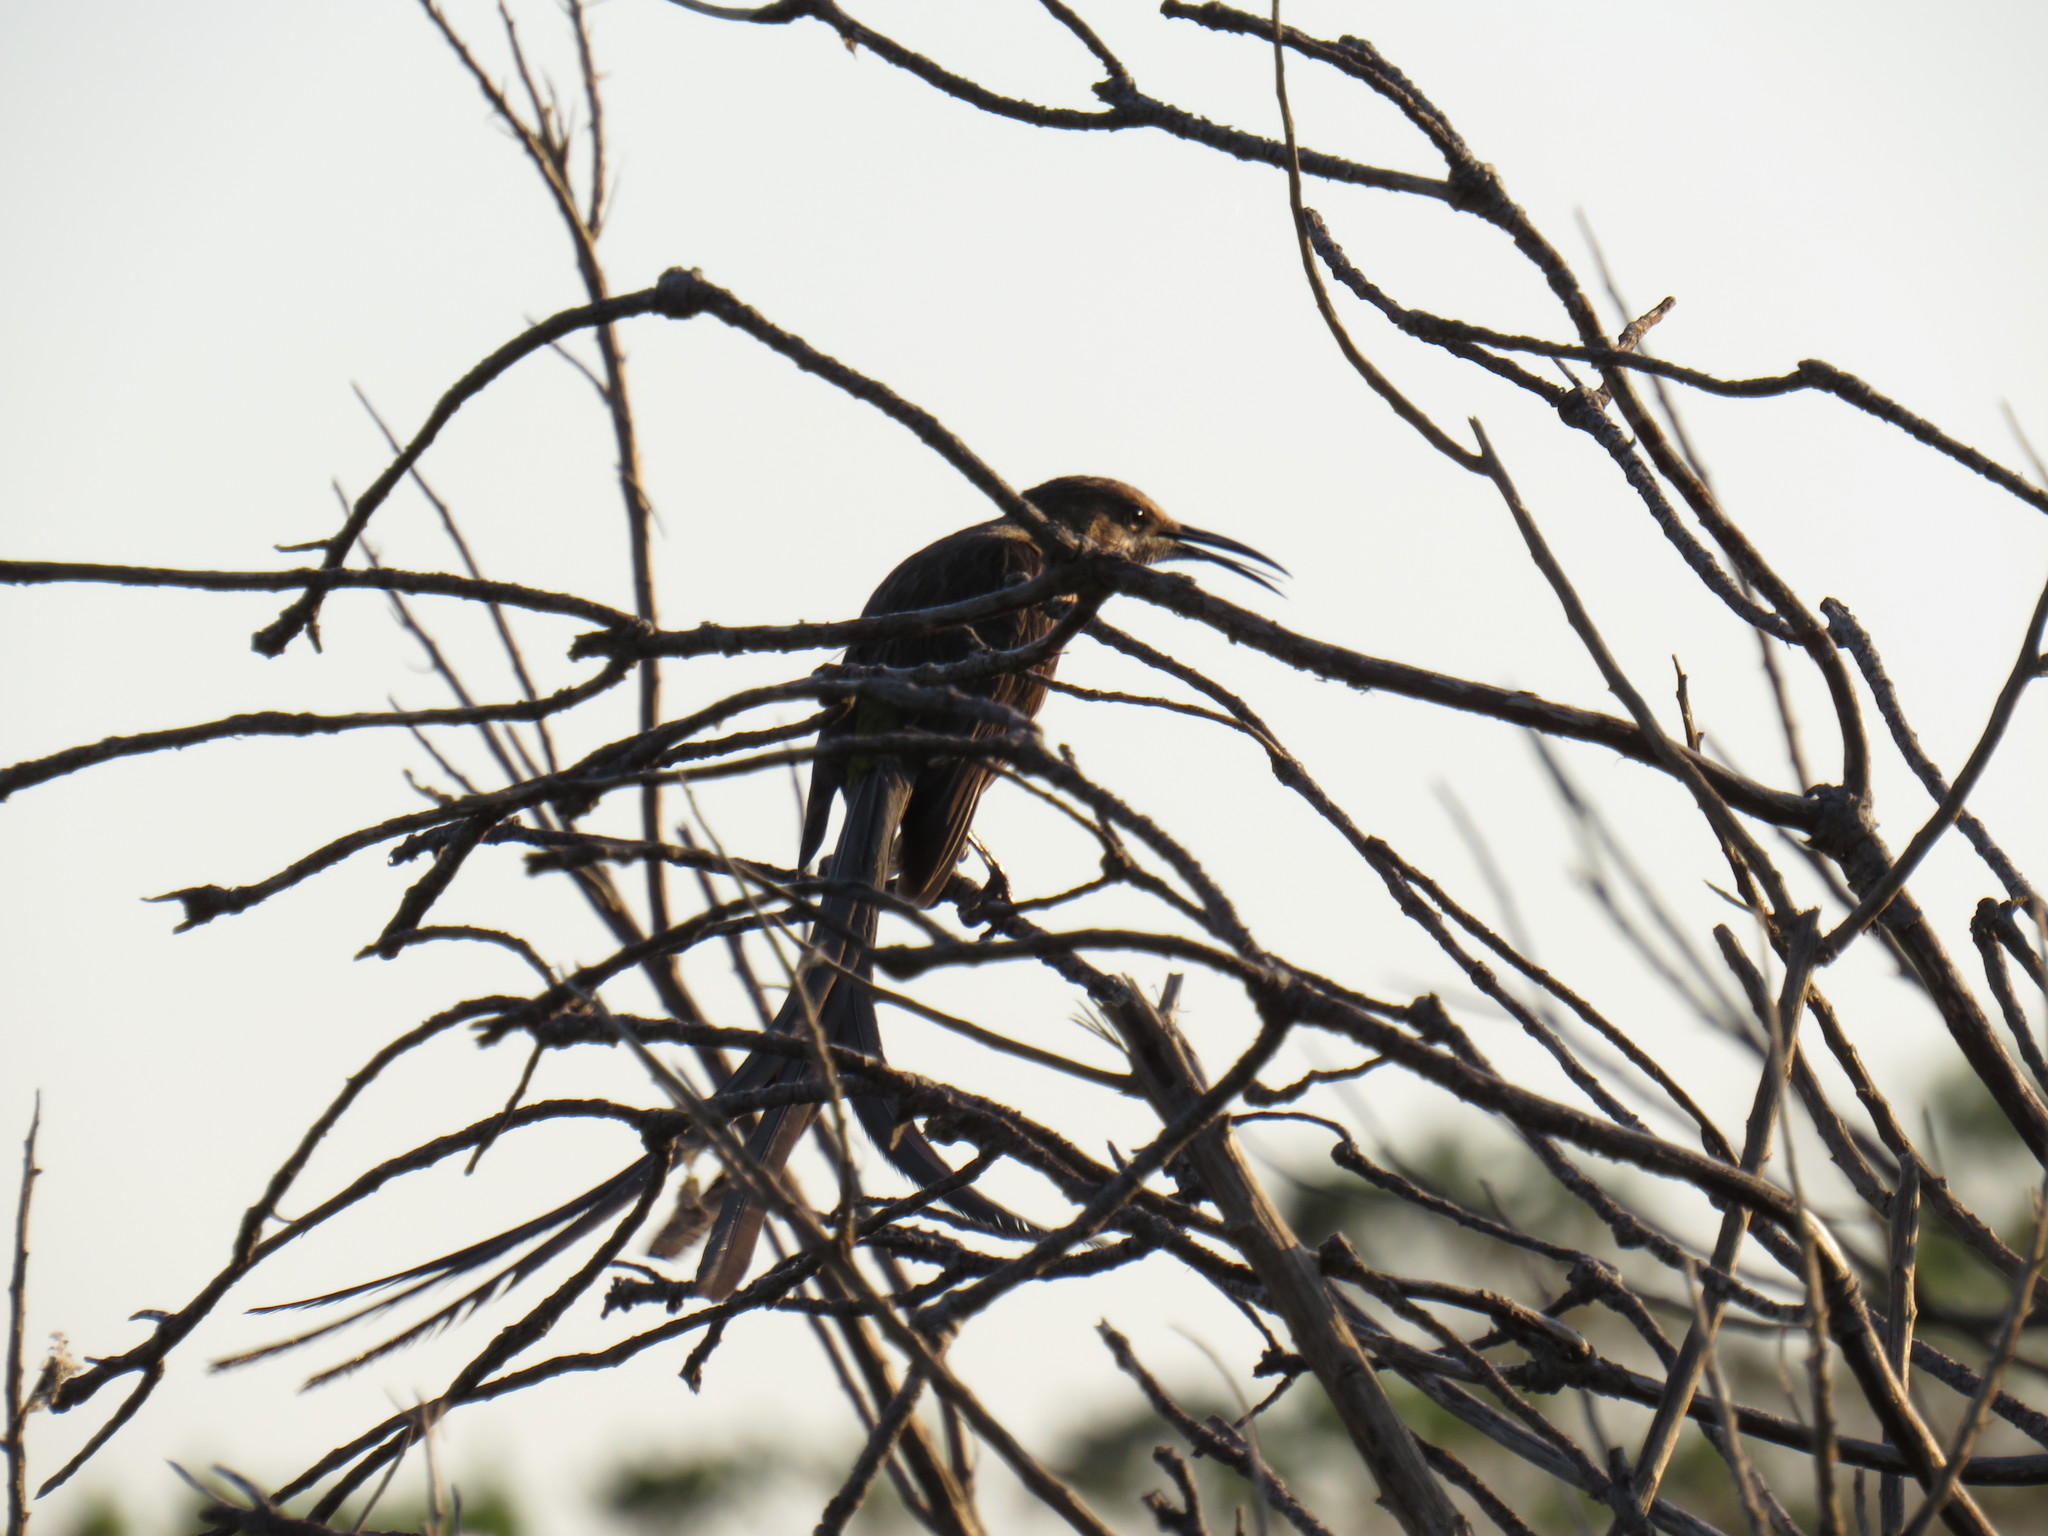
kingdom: Animalia
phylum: Chordata
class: Aves
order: Passeriformes
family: Promeropidae
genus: Promerops
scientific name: Promerops cafer
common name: Cape sugarbird
